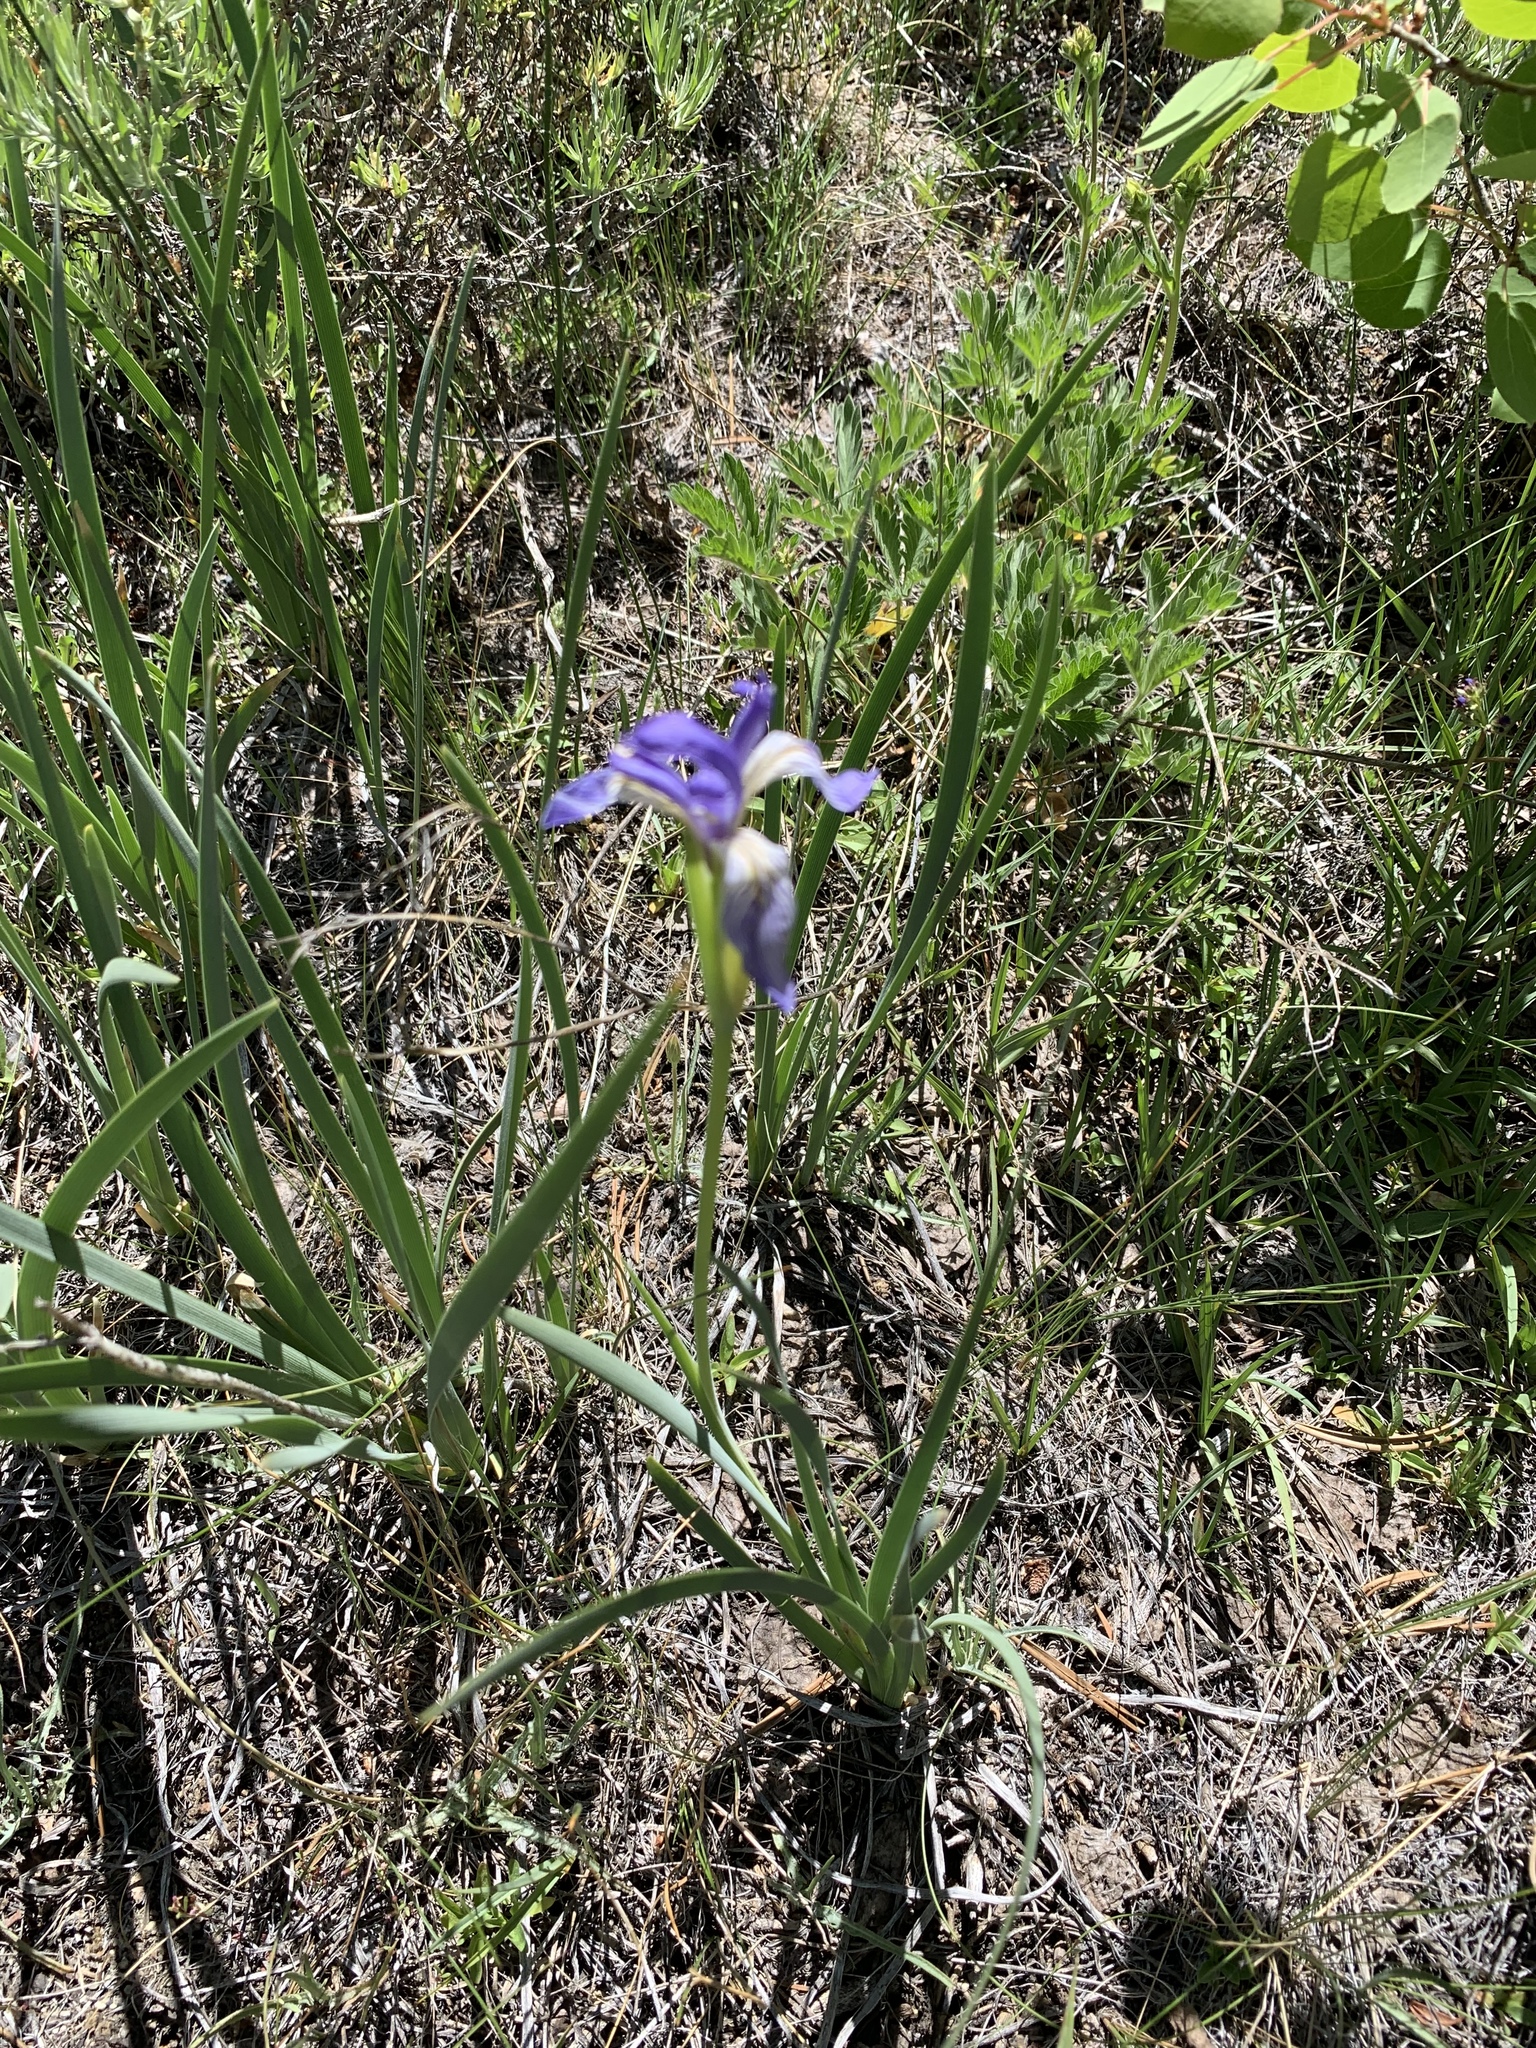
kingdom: Plantae
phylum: Tracheophyta
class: Liliopsida
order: Asparagales
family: Iridaceae
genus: Iris
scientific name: Iris missouriensis
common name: Rocky mountain iris
